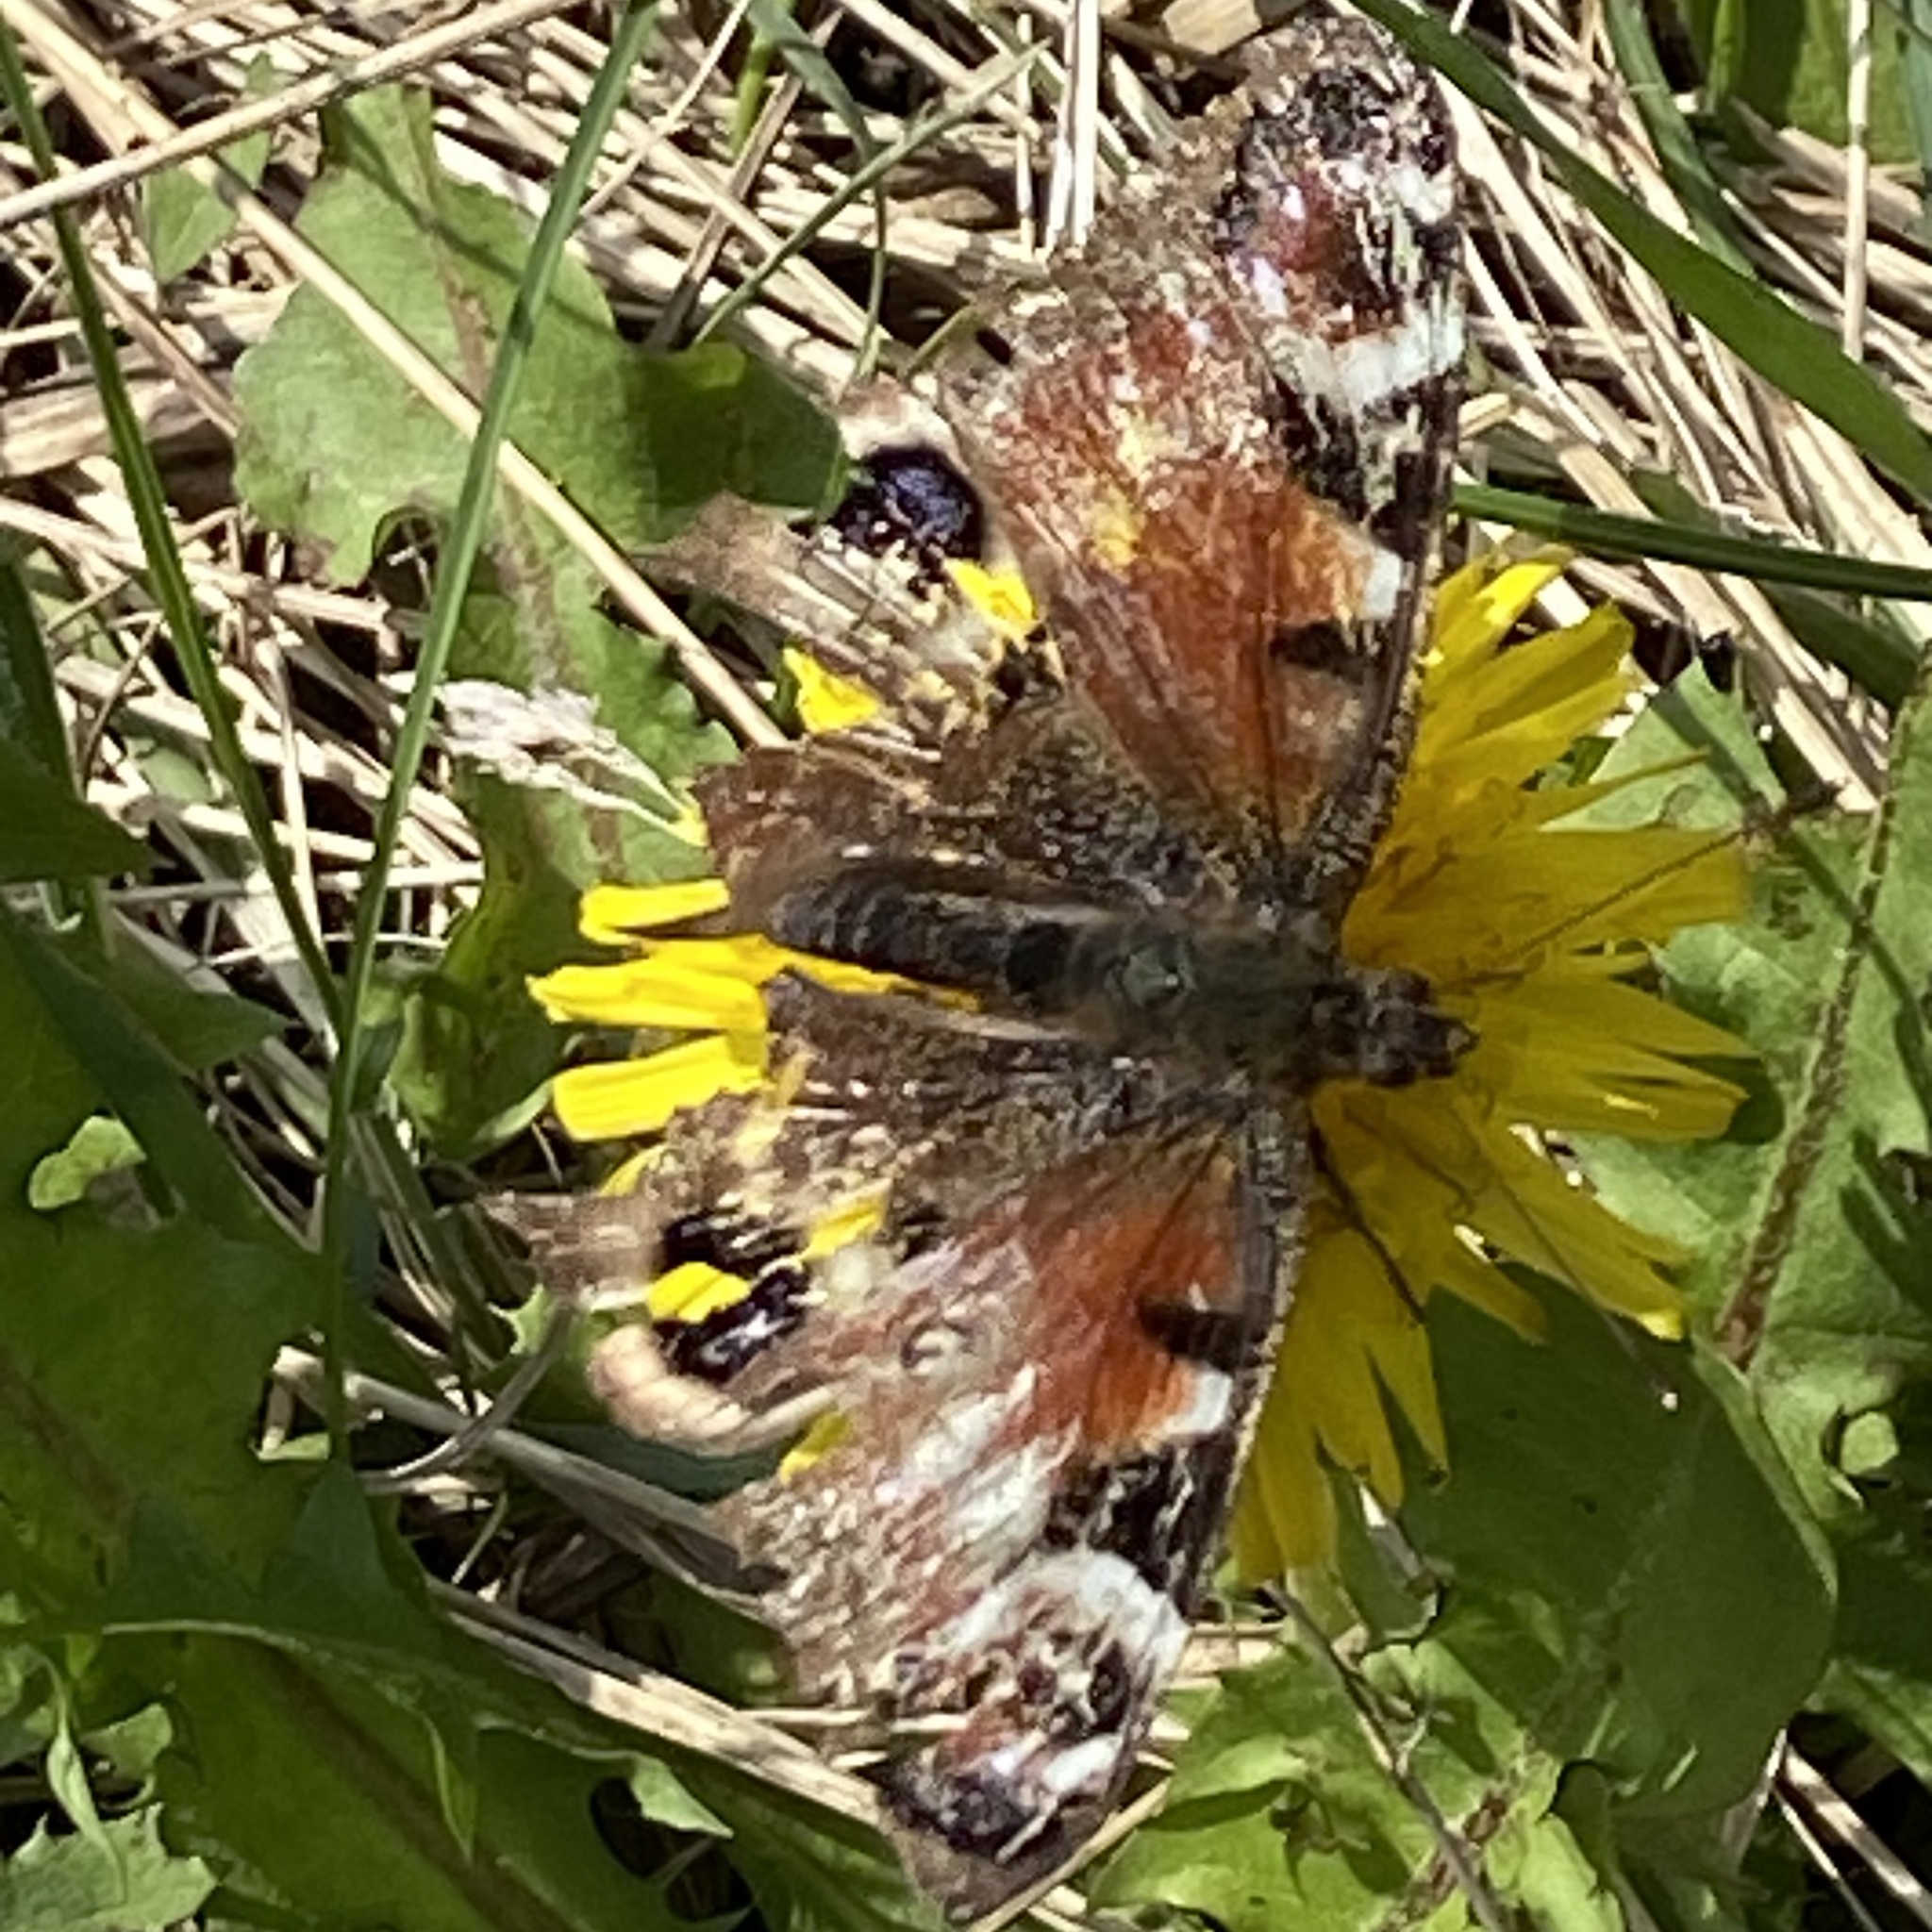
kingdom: Animalia
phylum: Arthropoda
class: Insecta
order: Lepidoptera
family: Nymphalidae
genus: Aglais
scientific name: Aglais io
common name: Peacock
